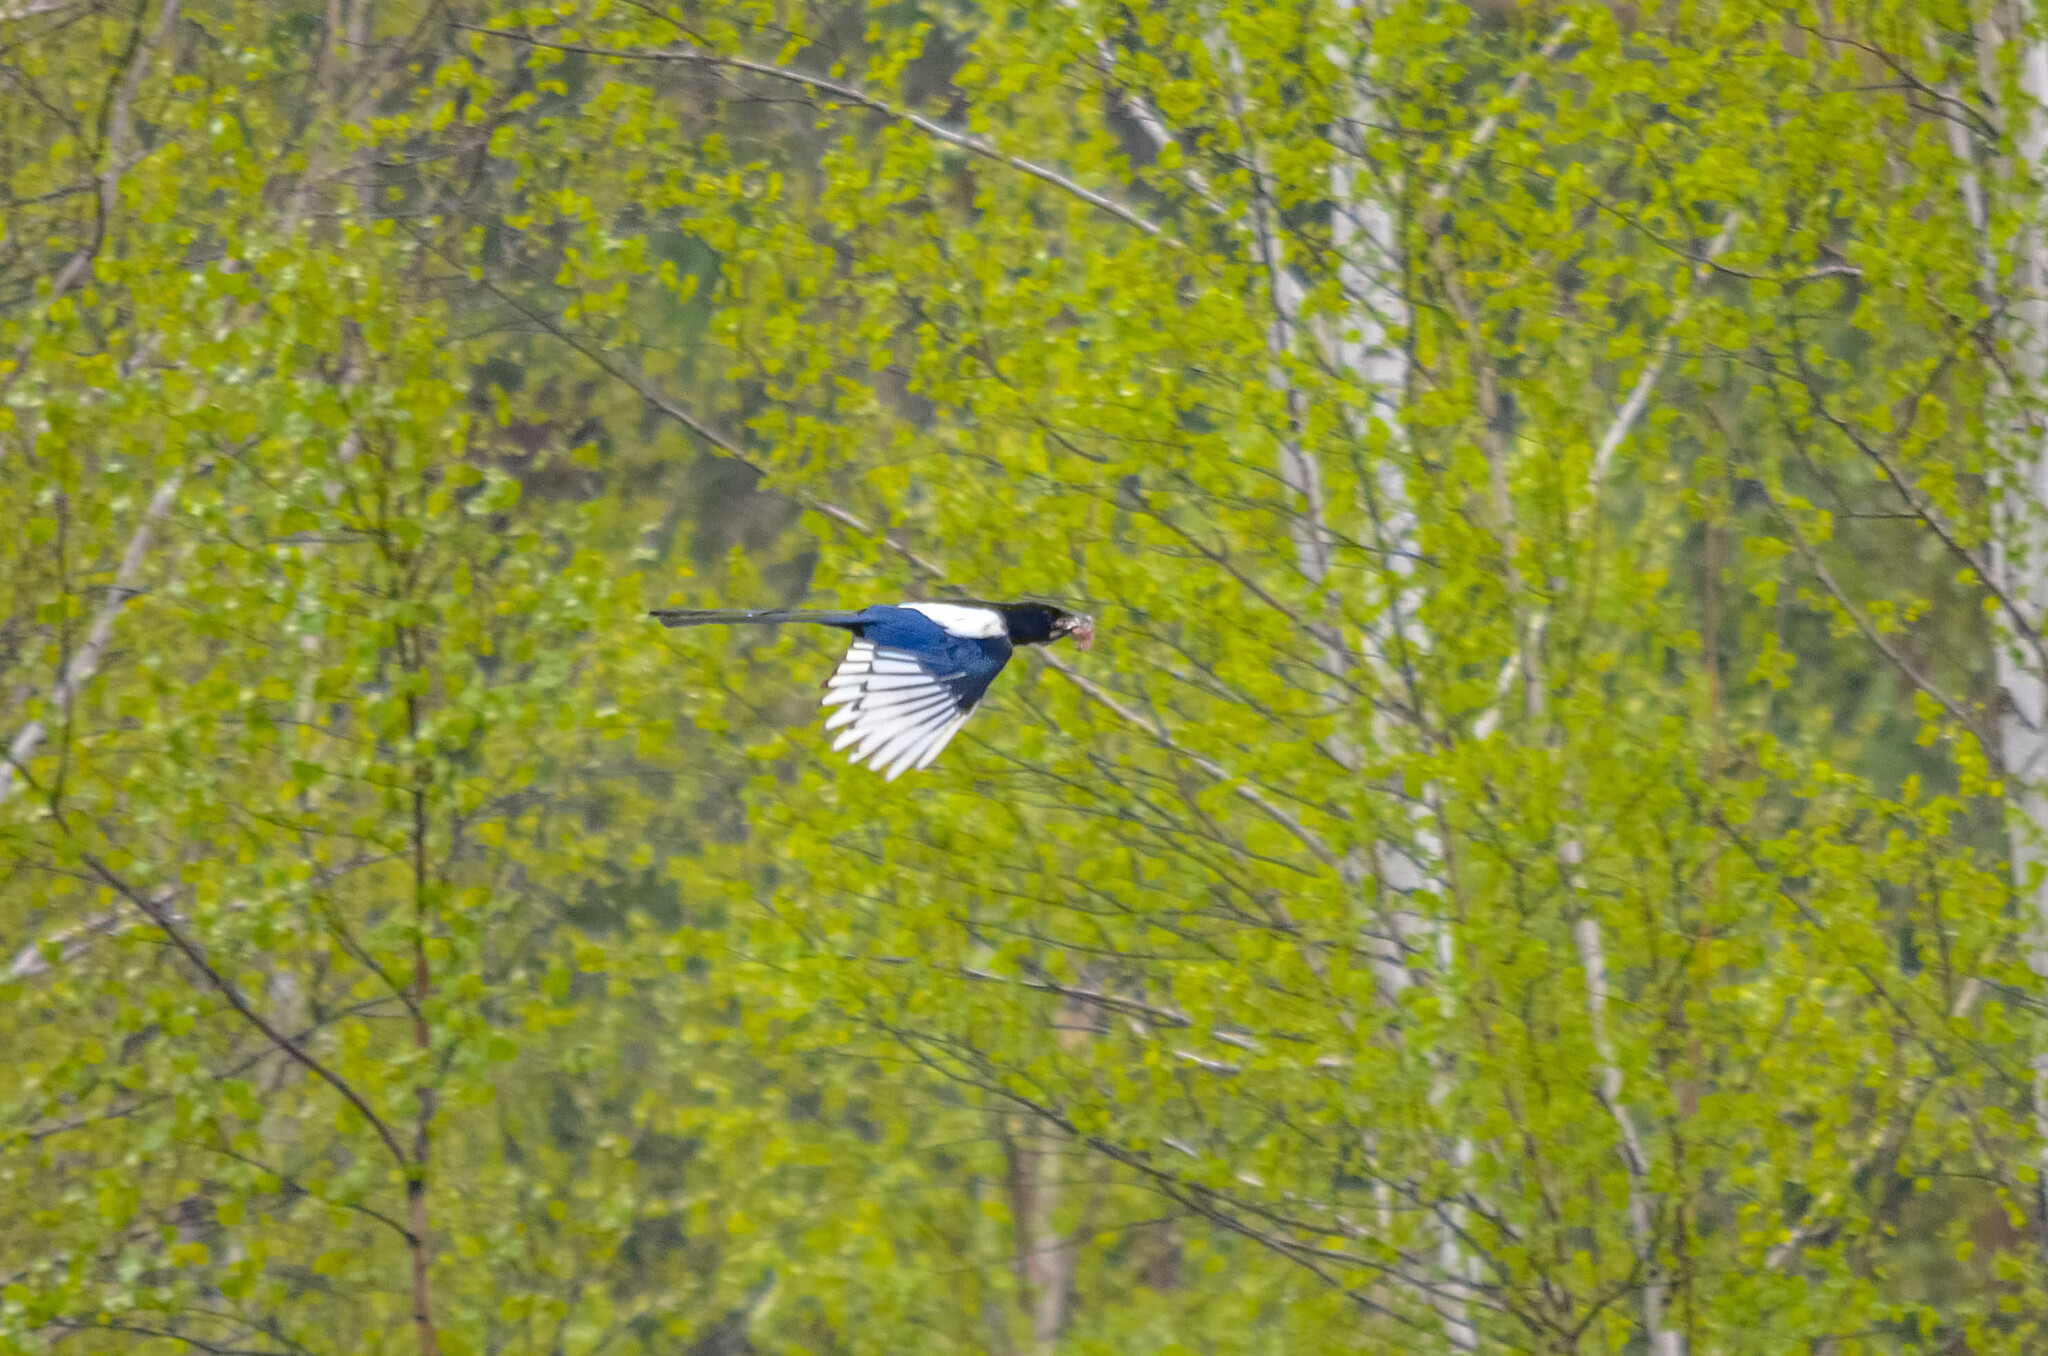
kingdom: Animalia
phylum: Chordata
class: Aves
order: Passeriformes
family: Corvidae
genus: Pica
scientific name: Pica pica
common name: Eurasian magpie
